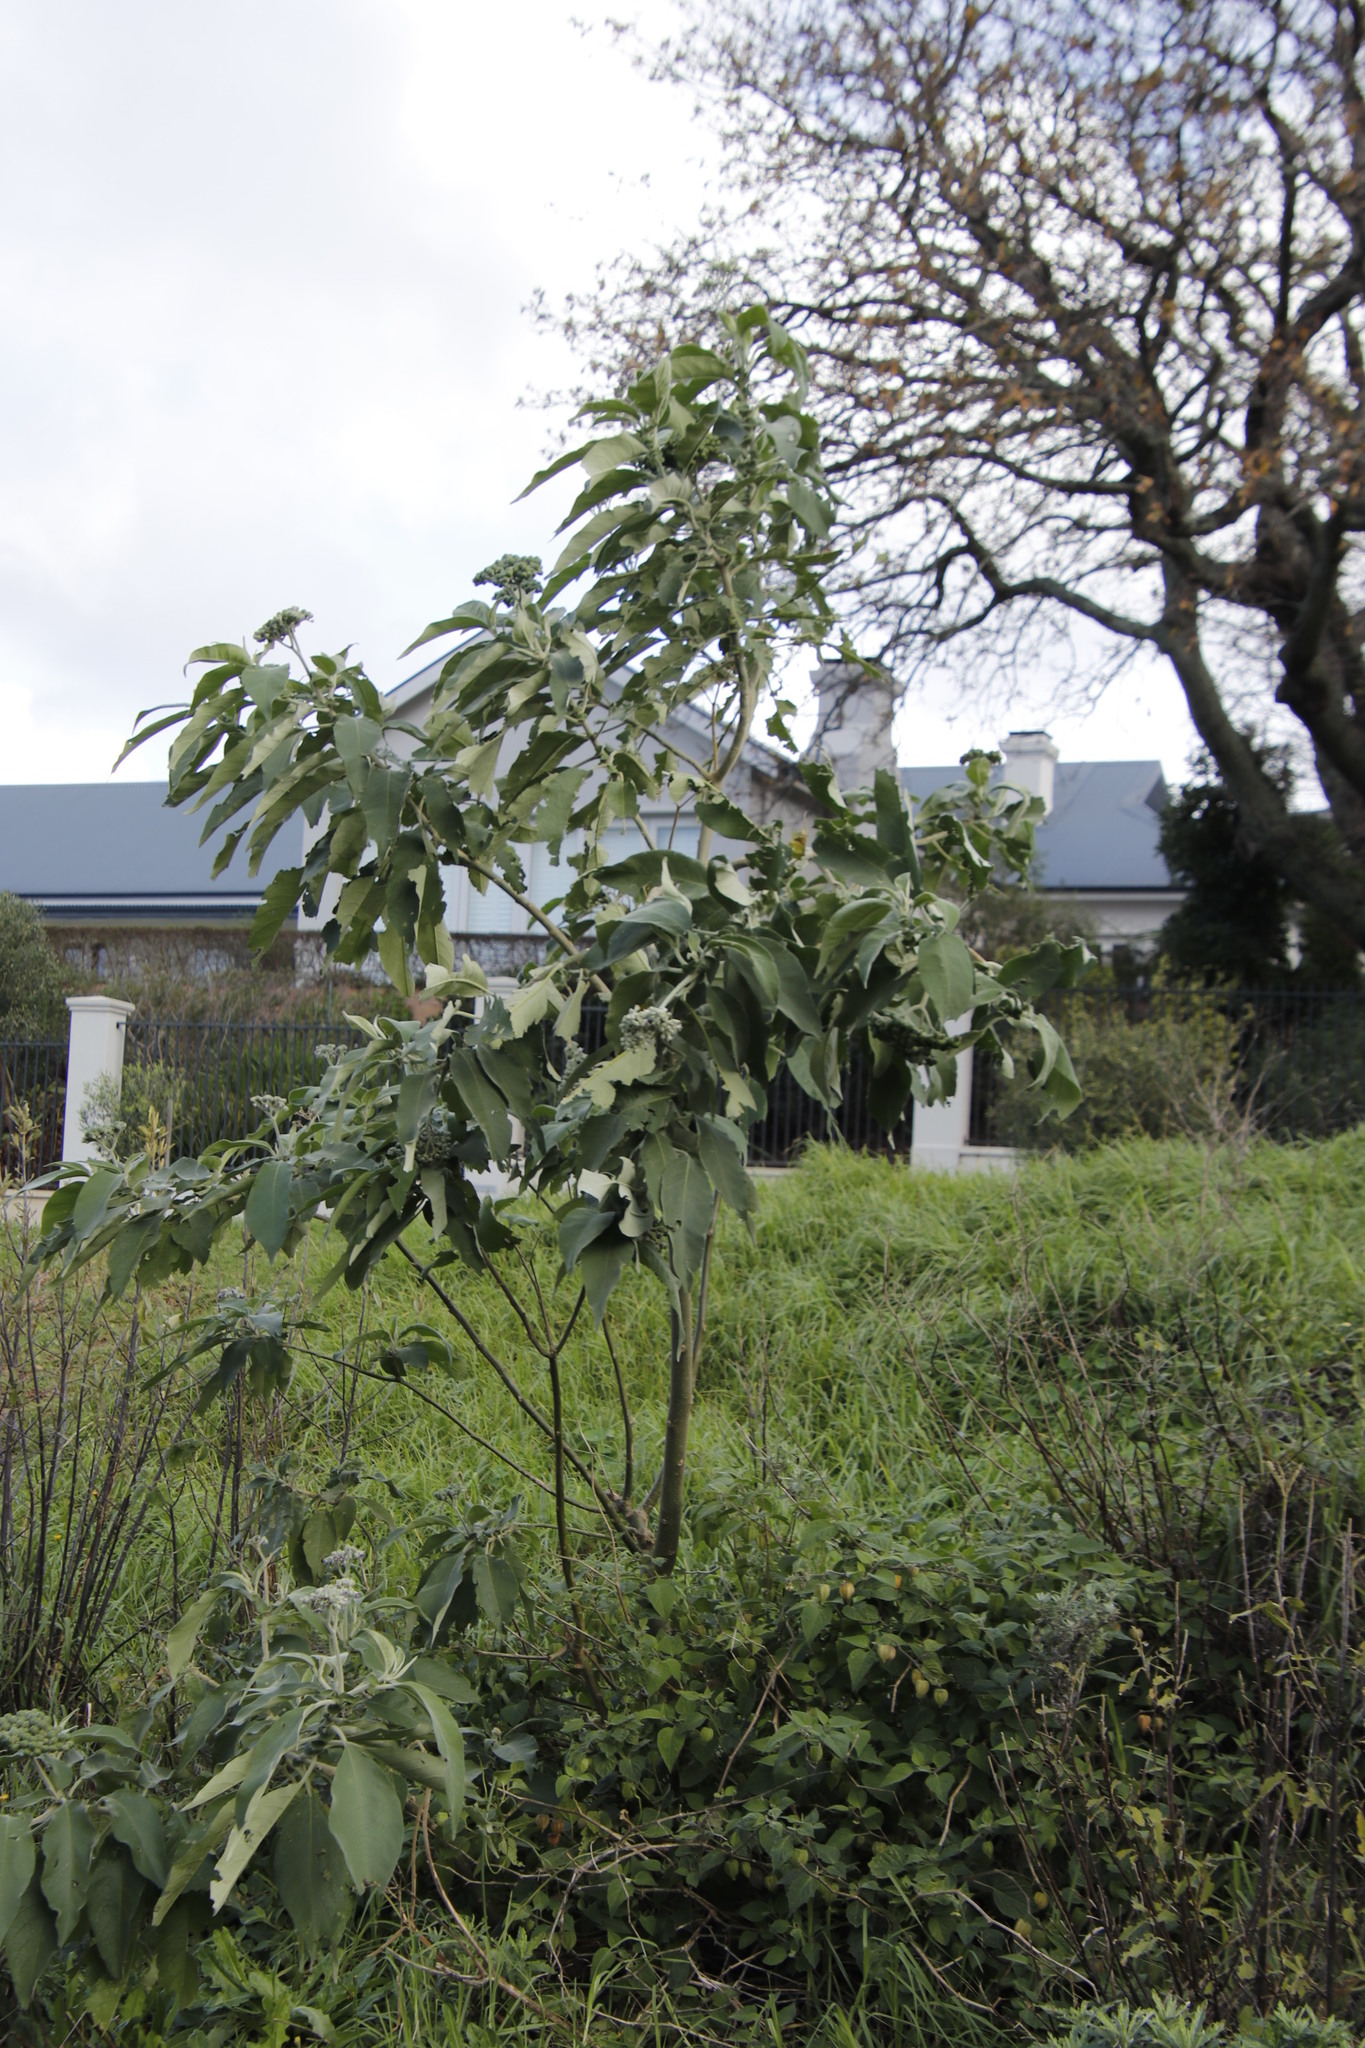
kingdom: Plantae
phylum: Tracheophyta
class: Magnoliopsida
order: Solanales
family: Solanaceae
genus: Solanum
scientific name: Solanum mauritianum
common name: Earleaf nightshade
